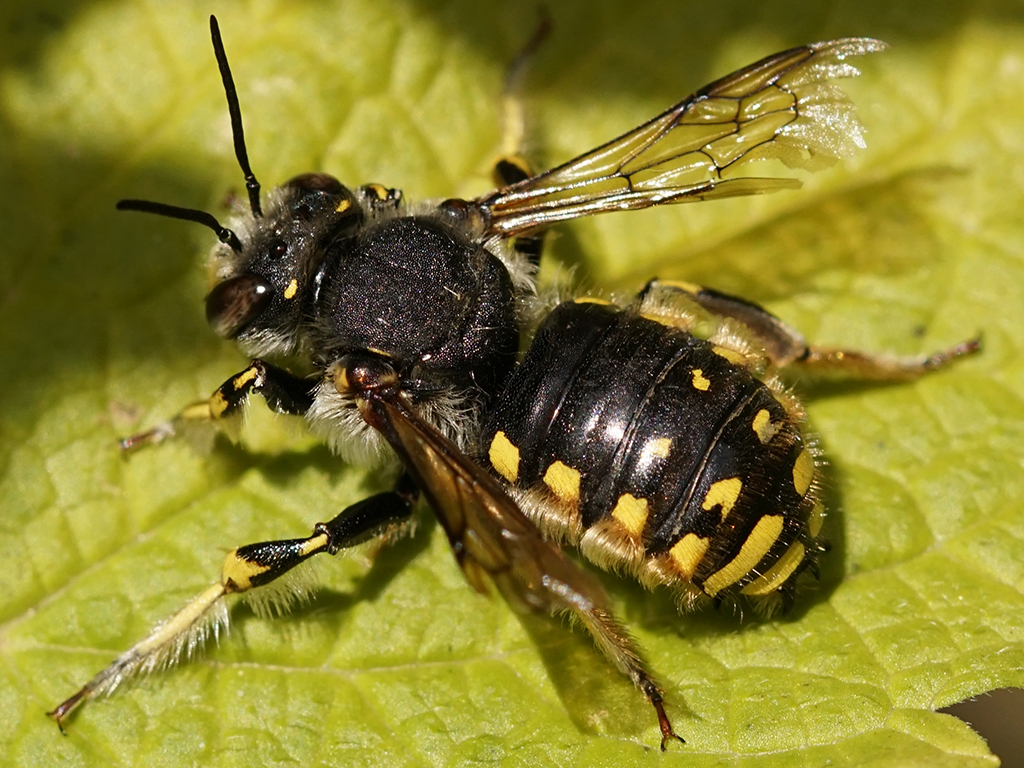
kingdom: Animalia
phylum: Arthropoda
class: Insecta
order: Hymenoptera
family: Megachilidae
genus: Anthidium
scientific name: Anthidium manicatum
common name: Wool carder bee
